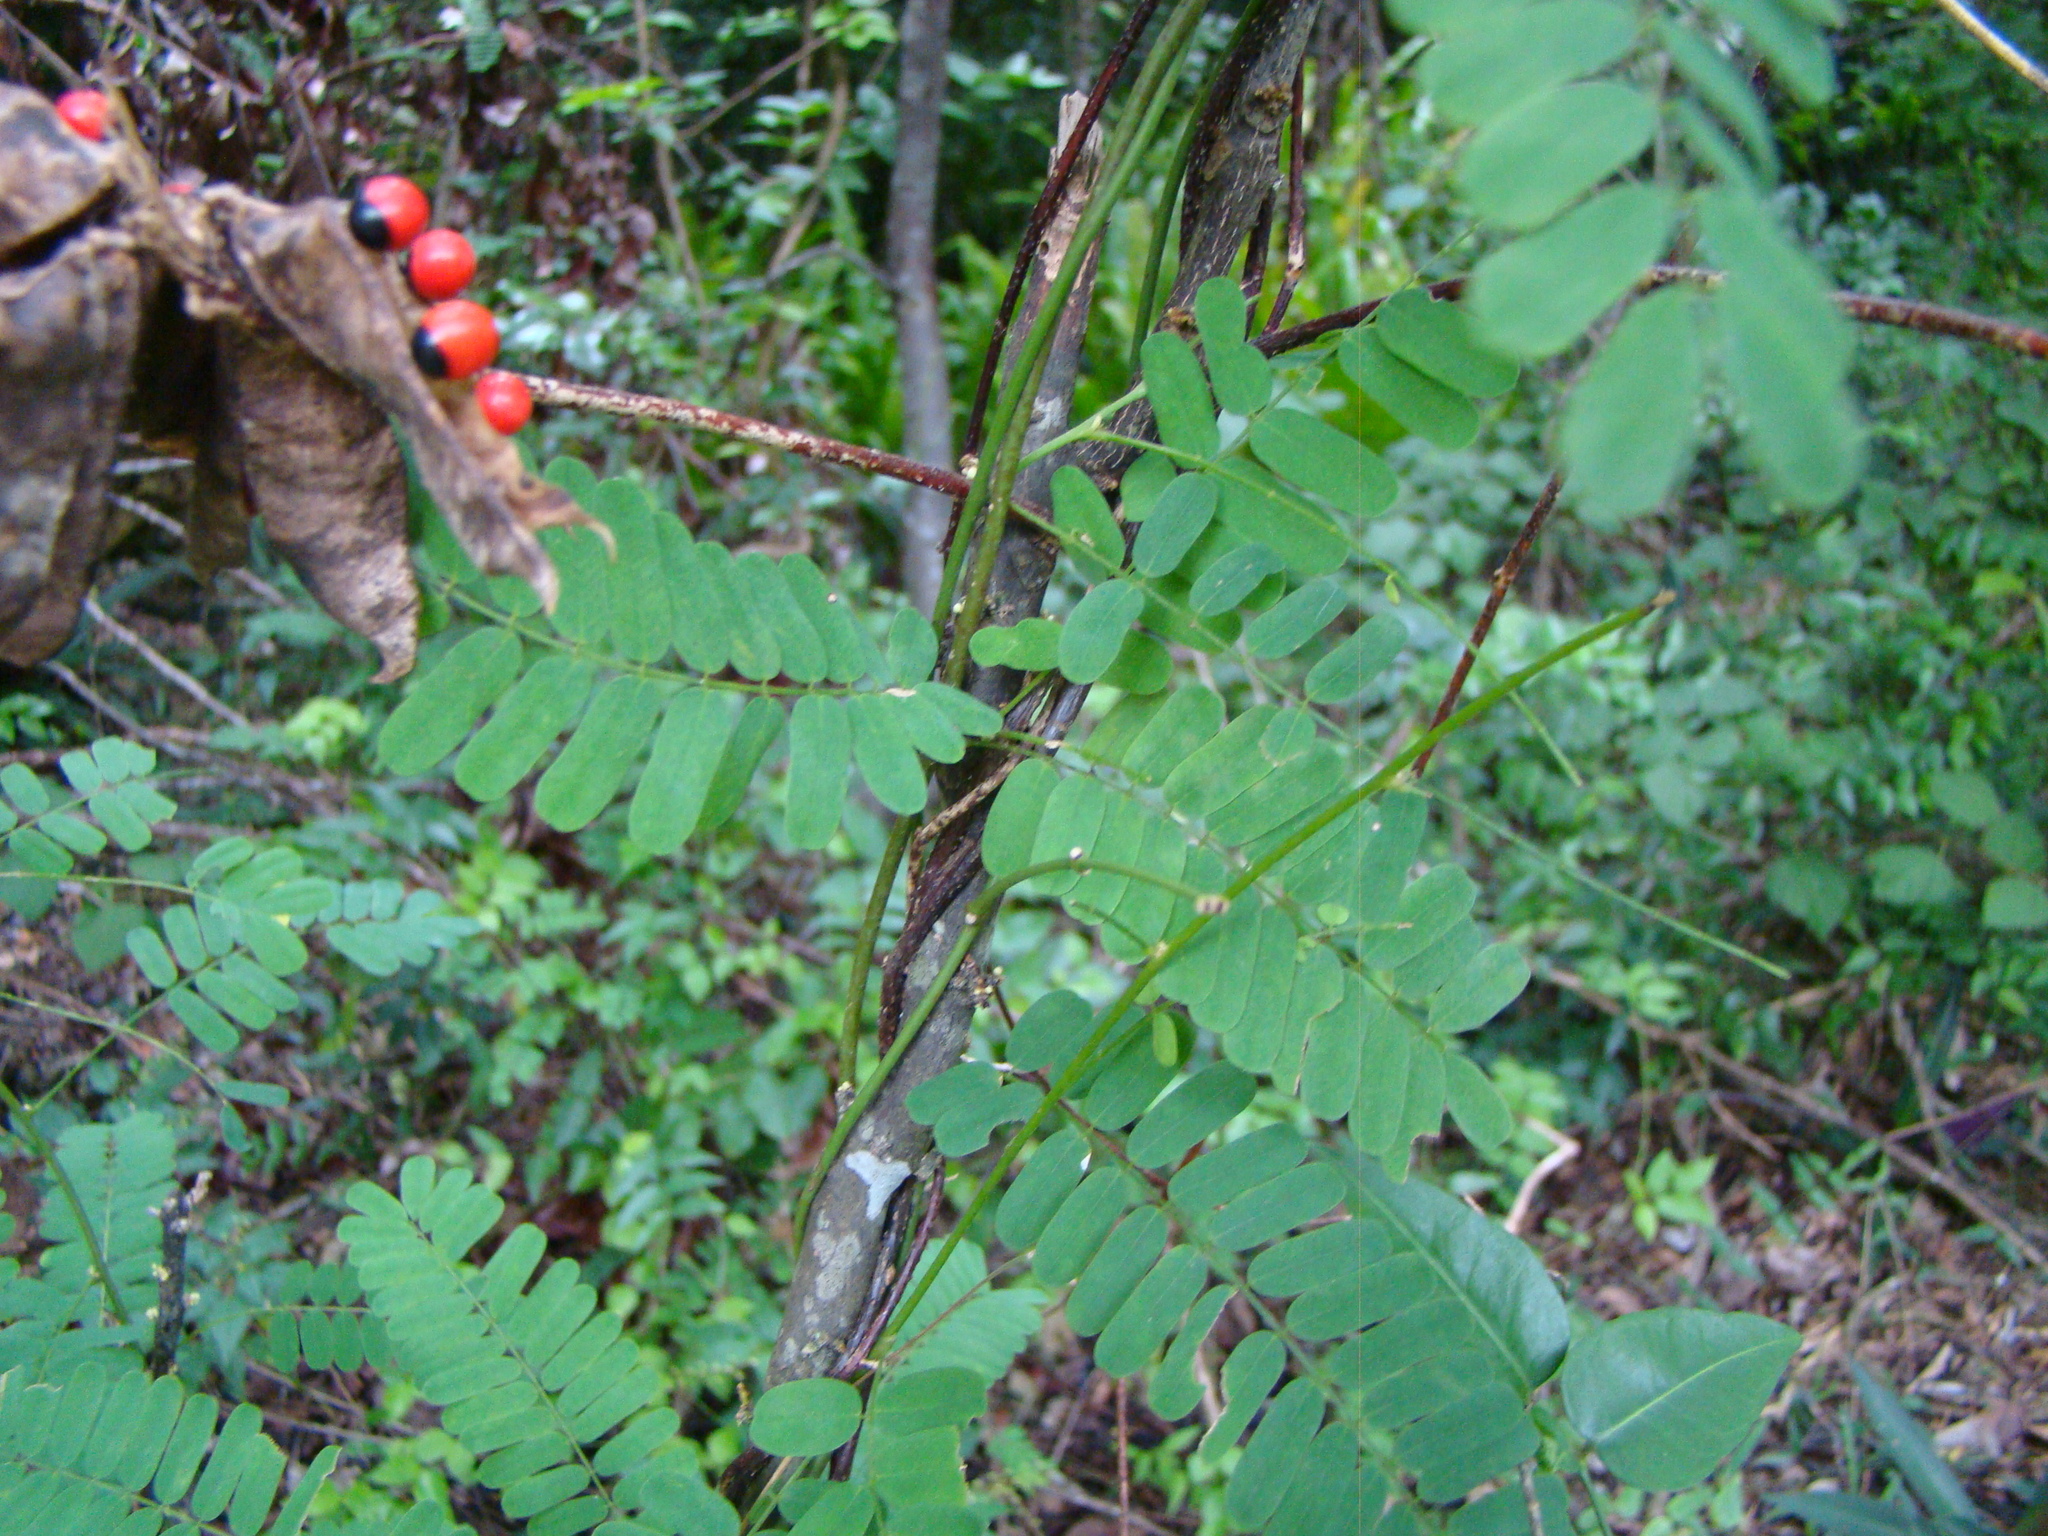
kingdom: Plantae
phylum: Tracheophyta
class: Magnoliopsida
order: Fabales
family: Fabaceae
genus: Abrus
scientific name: Abrus precatorius
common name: Rosarypea
